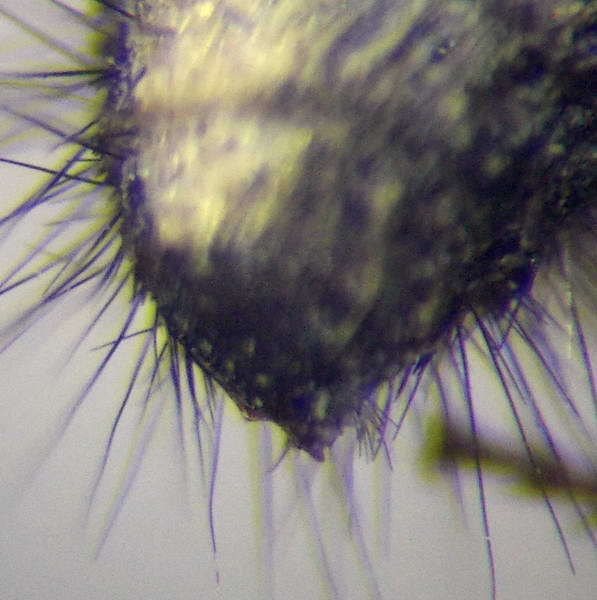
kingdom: Animalia
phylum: Arthropoda
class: Insecta
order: Hymenoptera
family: Mutillidae
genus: Dasylabris
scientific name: Dasylabris regalis
